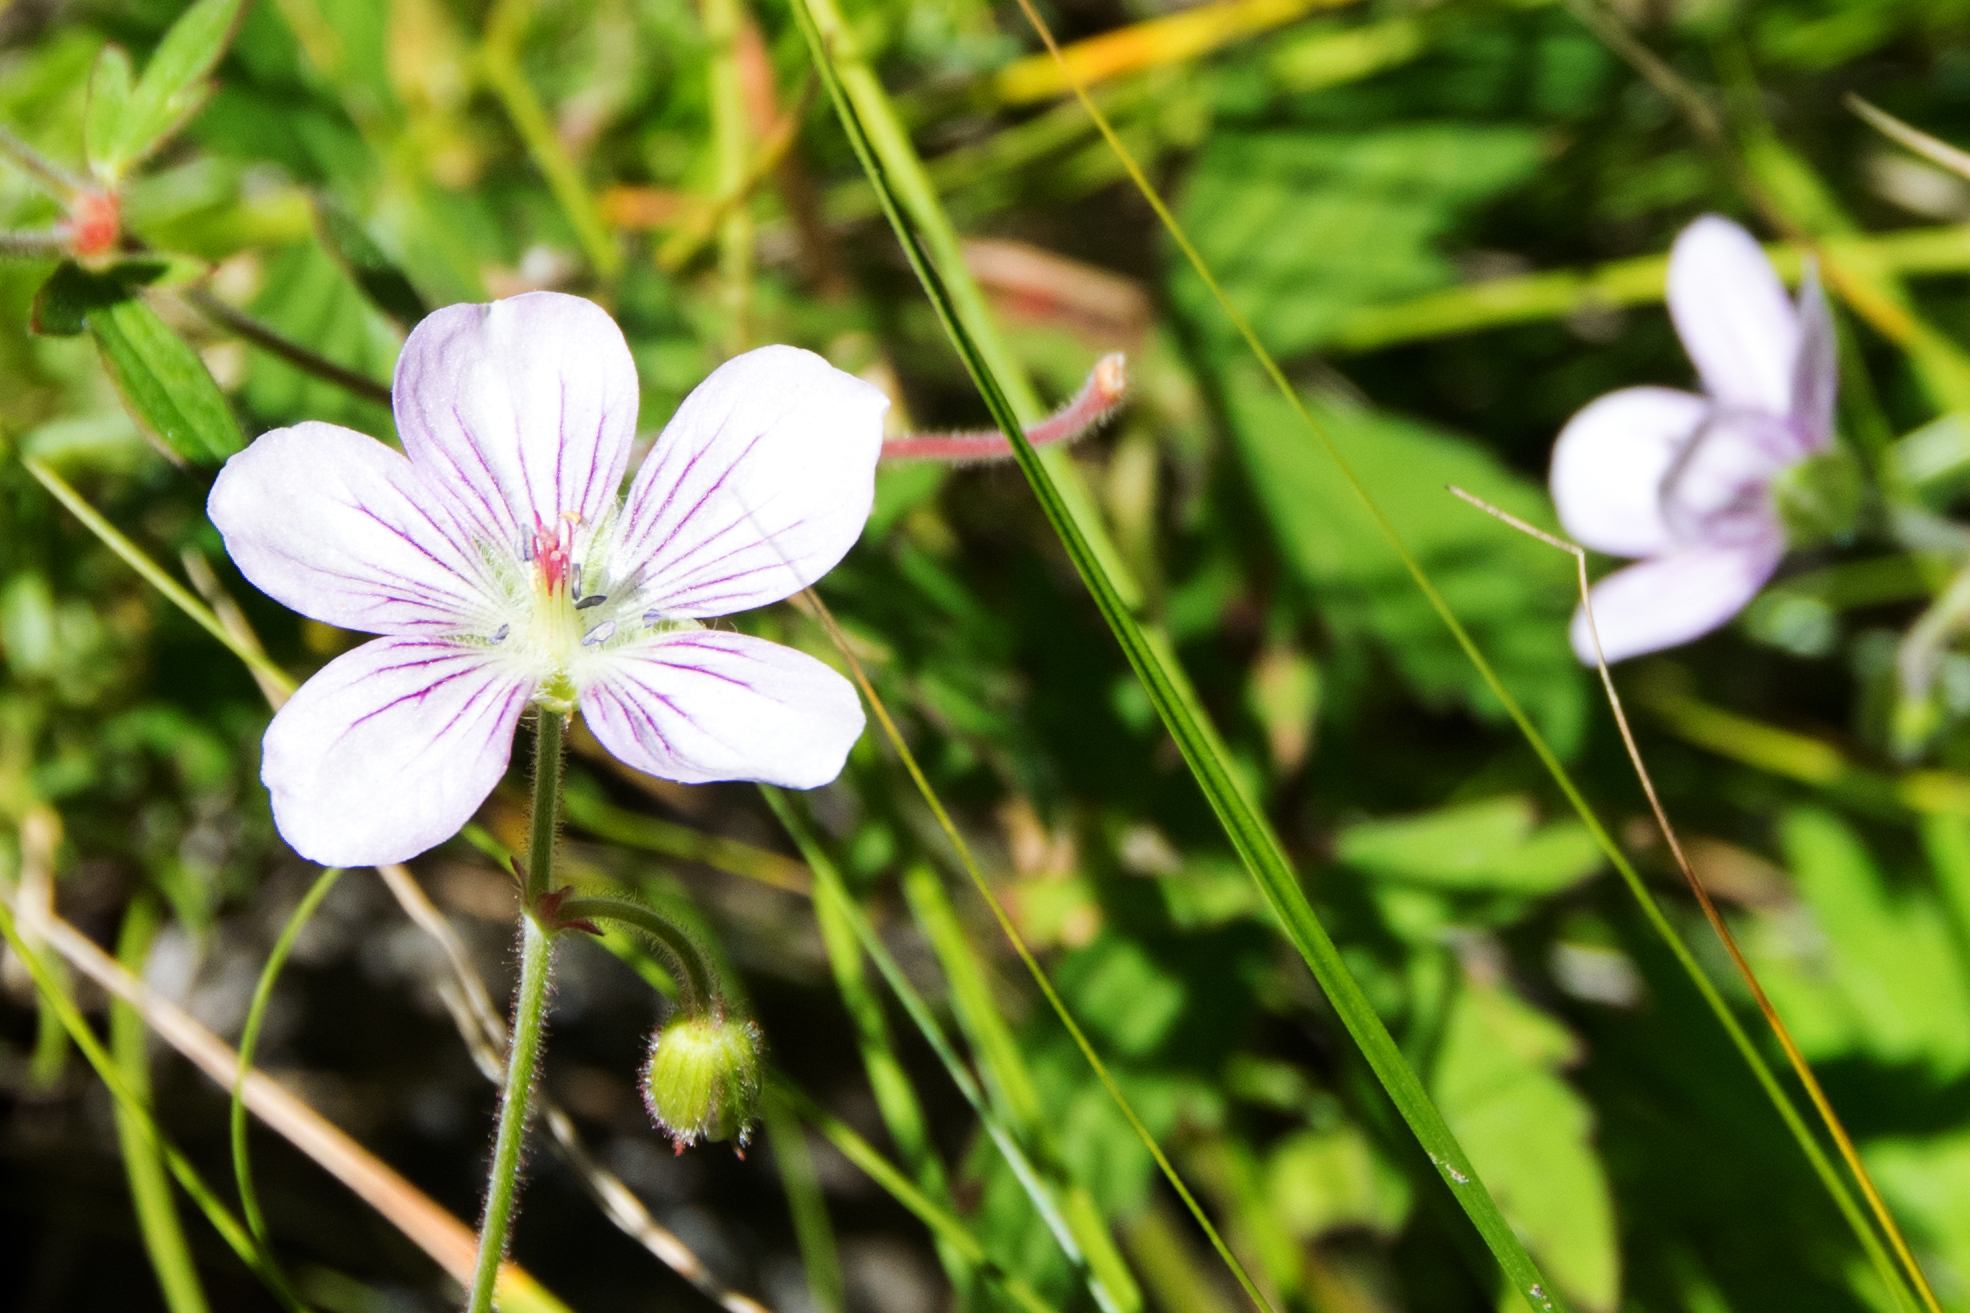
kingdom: Plantae
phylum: Tracheophyta
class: Magnoliopsida
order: Geraniales
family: Geraniaceae
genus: Geranium
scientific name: Geranium richardsonii
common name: Richardson's crane's-bill
